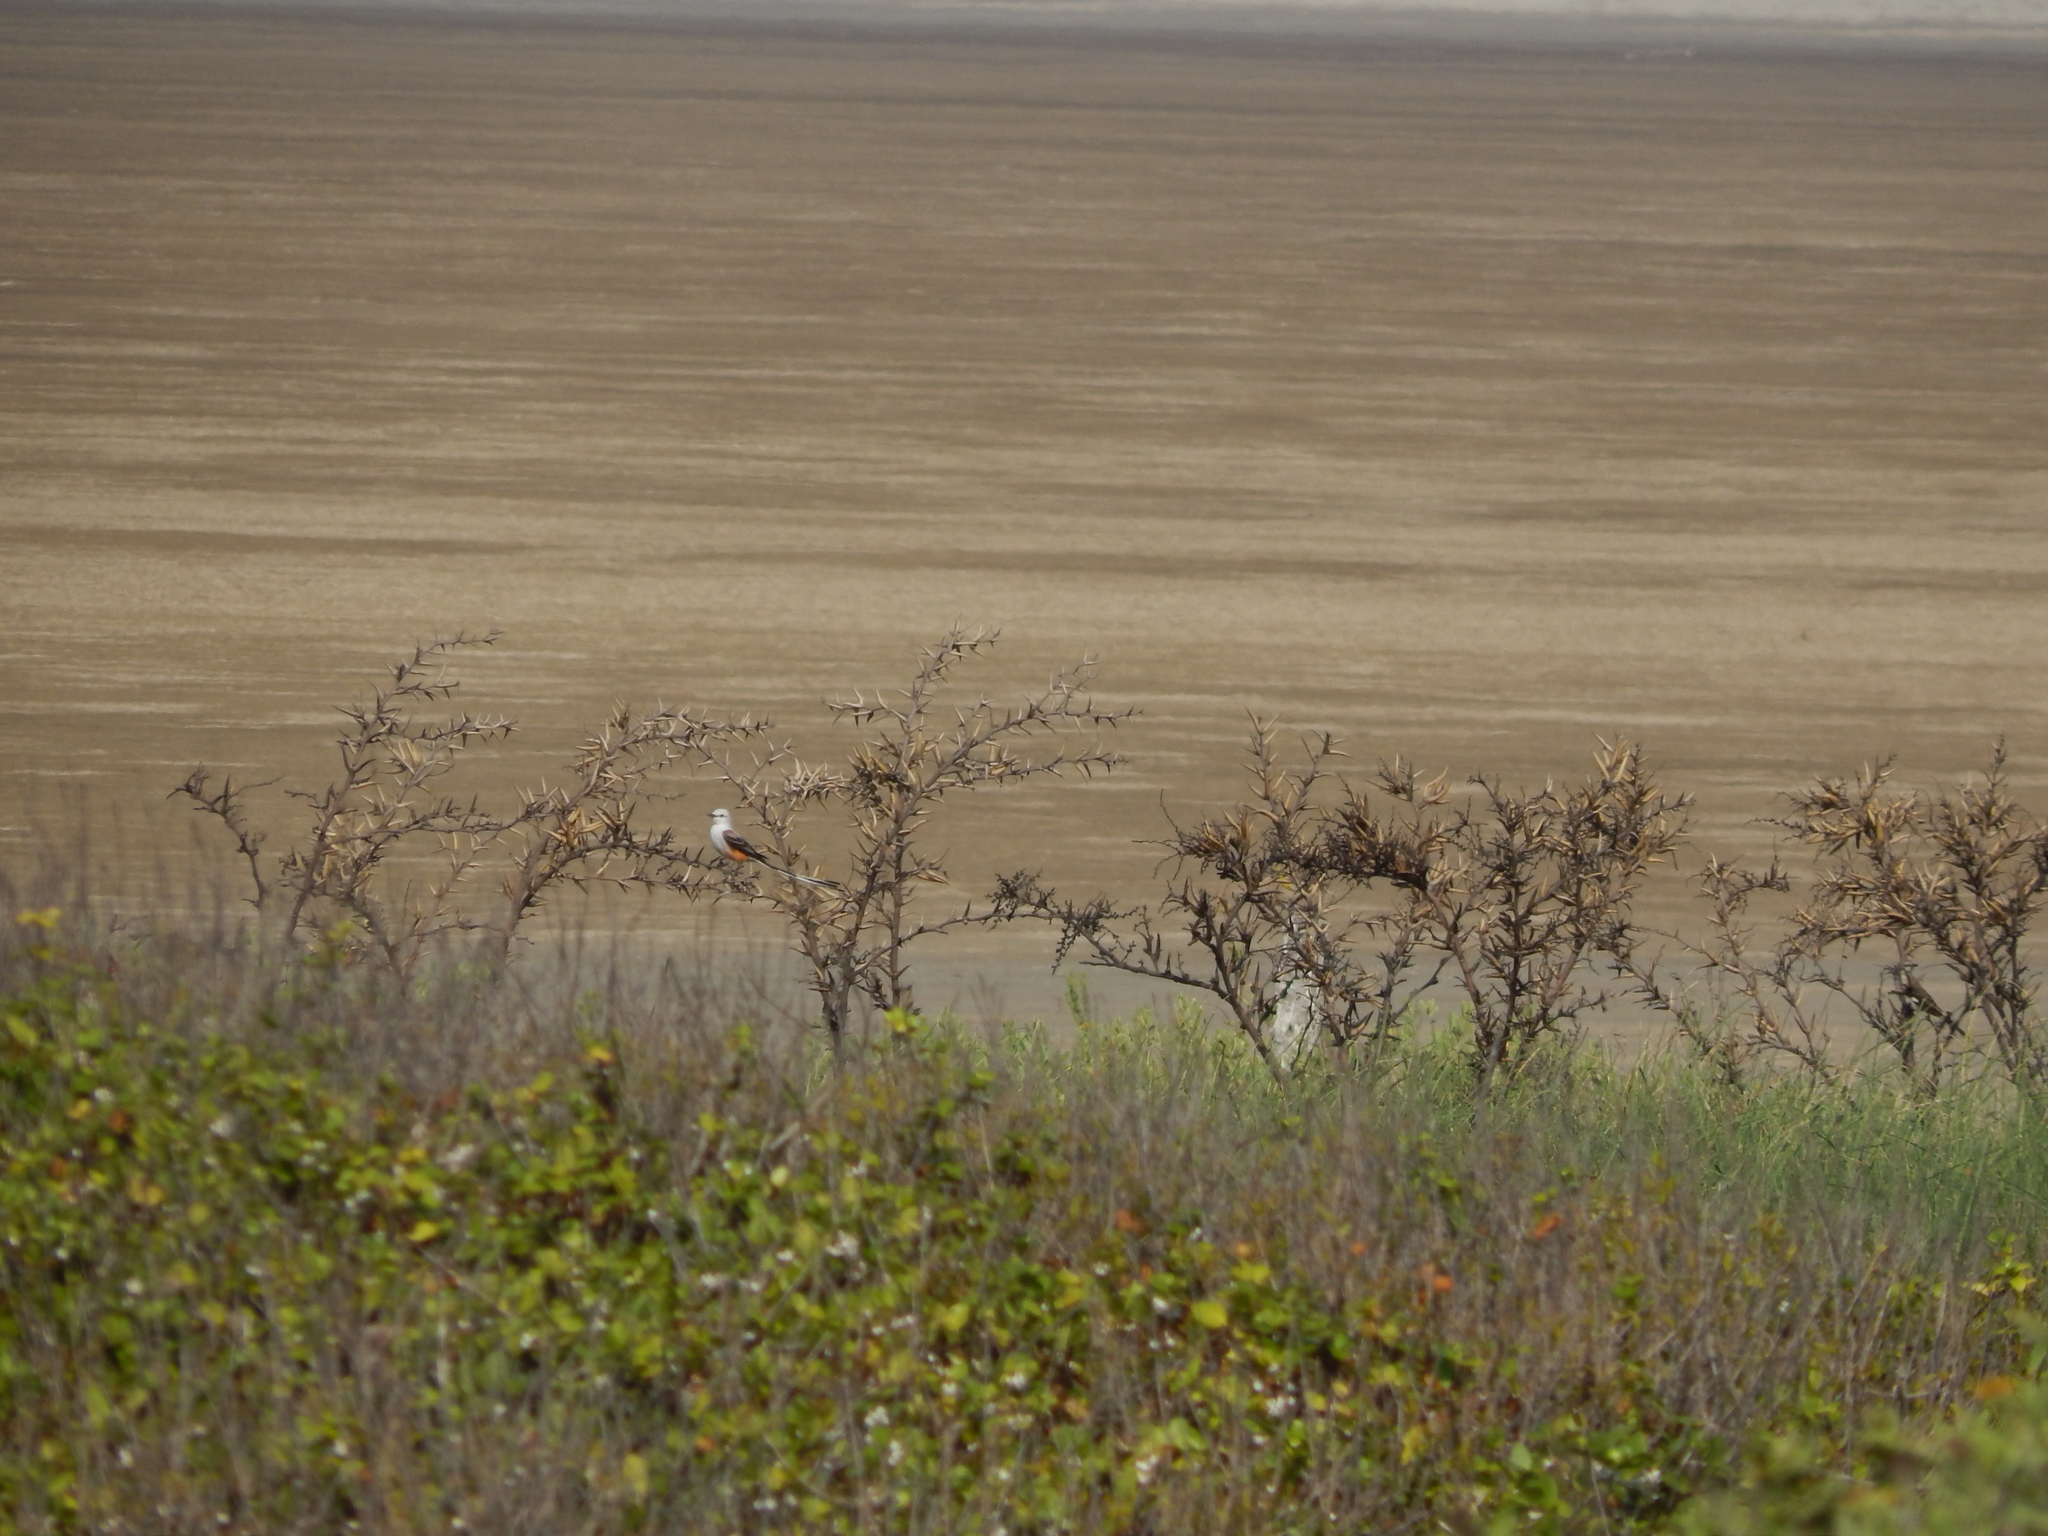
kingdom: Animalia
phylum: Chordata
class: Aves
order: Passeriformes
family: Tyrannidae
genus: Tyrannus
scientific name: Tyrannus forficatus
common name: Scissor-tailed flycatcher
